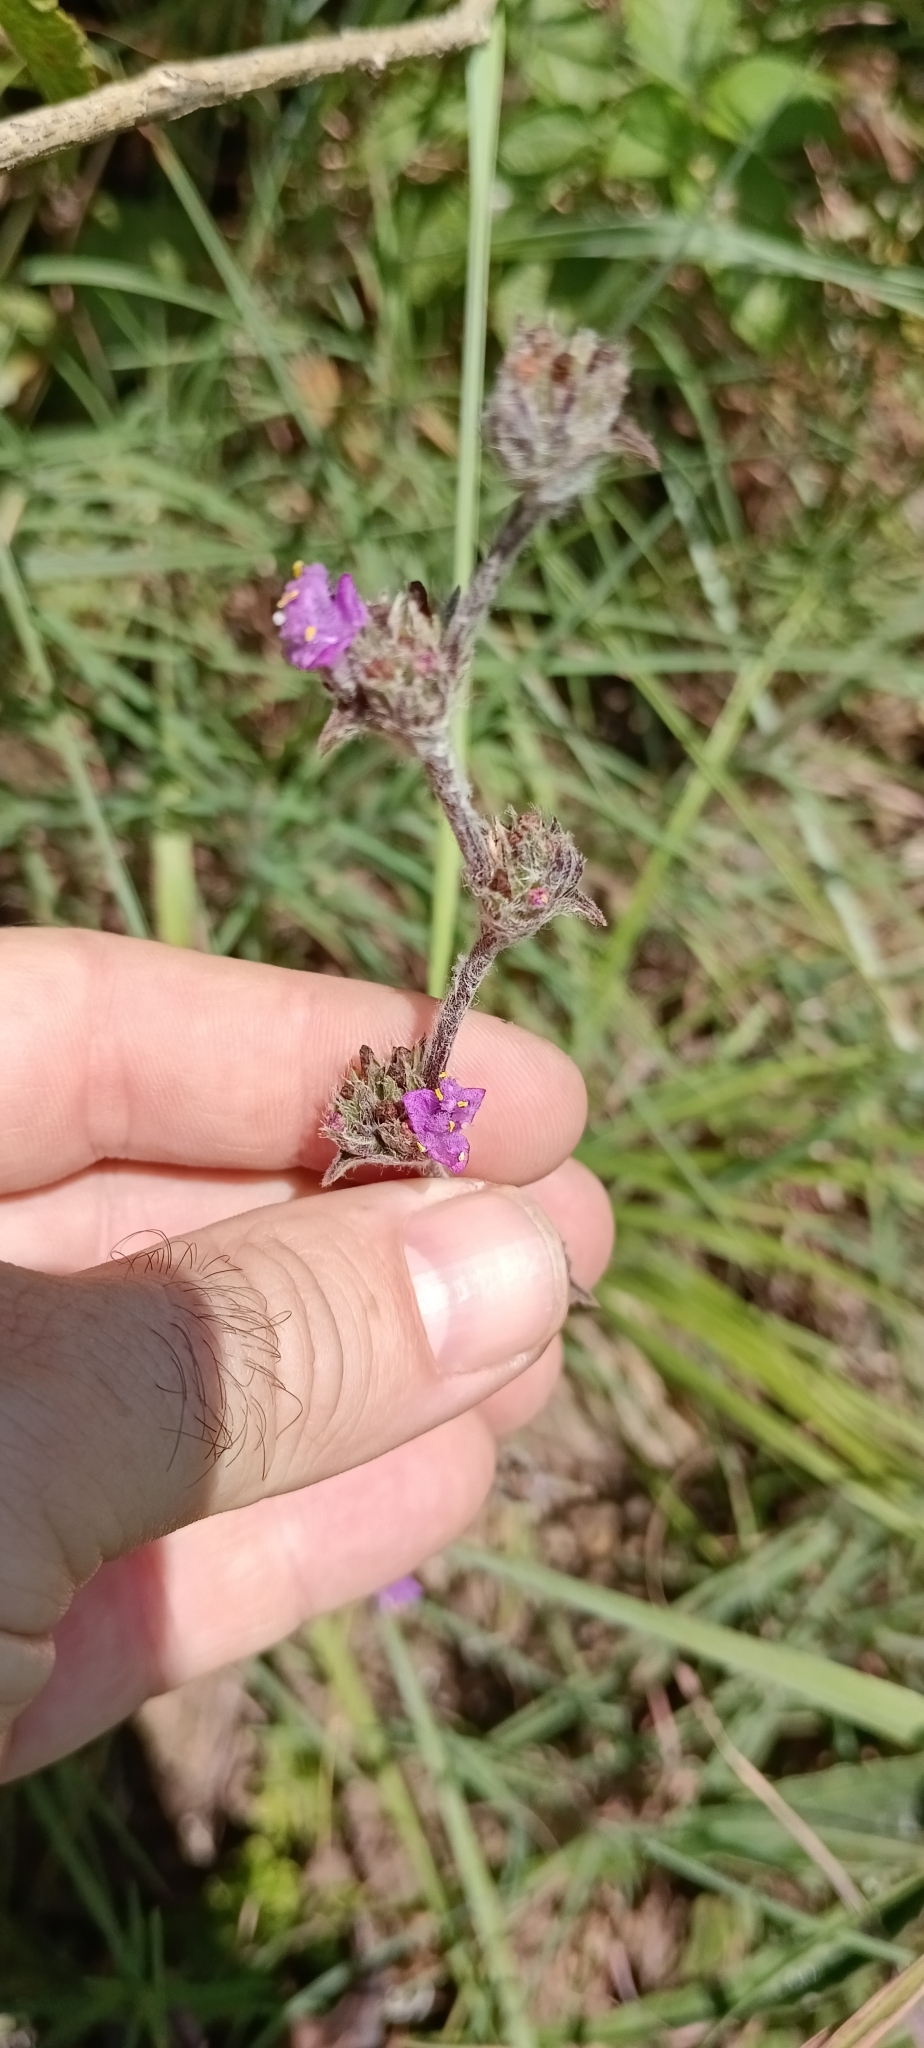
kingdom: Plantae
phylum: Tracheophyta
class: Liliopsida
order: Commelinales
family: Commelinaceae
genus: Cyanotis
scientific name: Cyanotis speciosa
